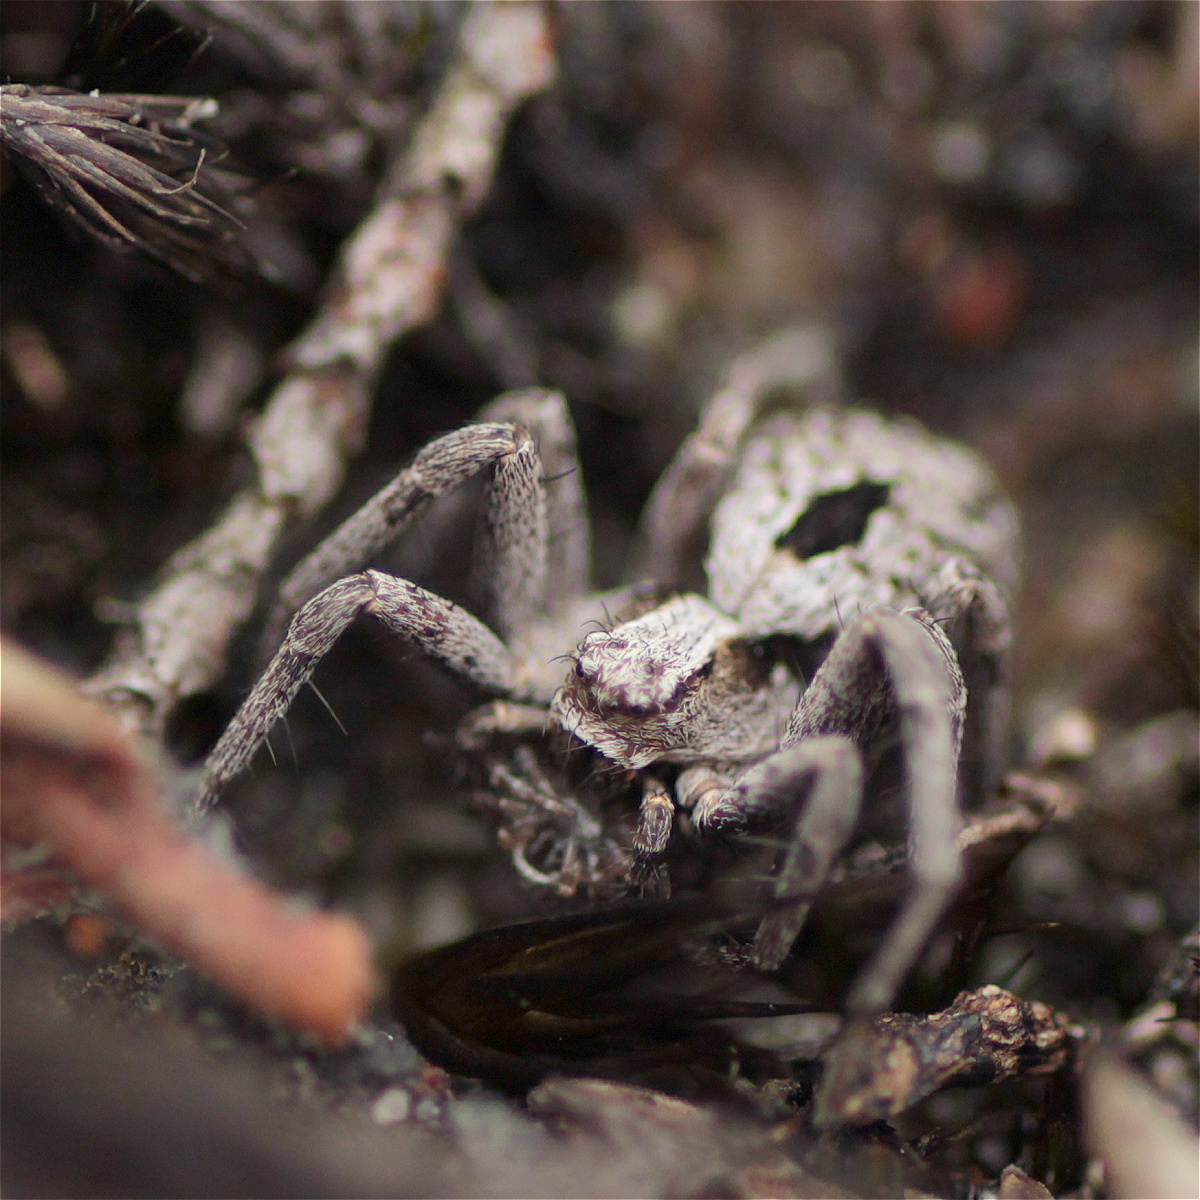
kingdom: Animalia
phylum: Arthropoda
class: Arachnida
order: Araneae
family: Philodromidae
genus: Petrichus
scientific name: Petrichus griseus
